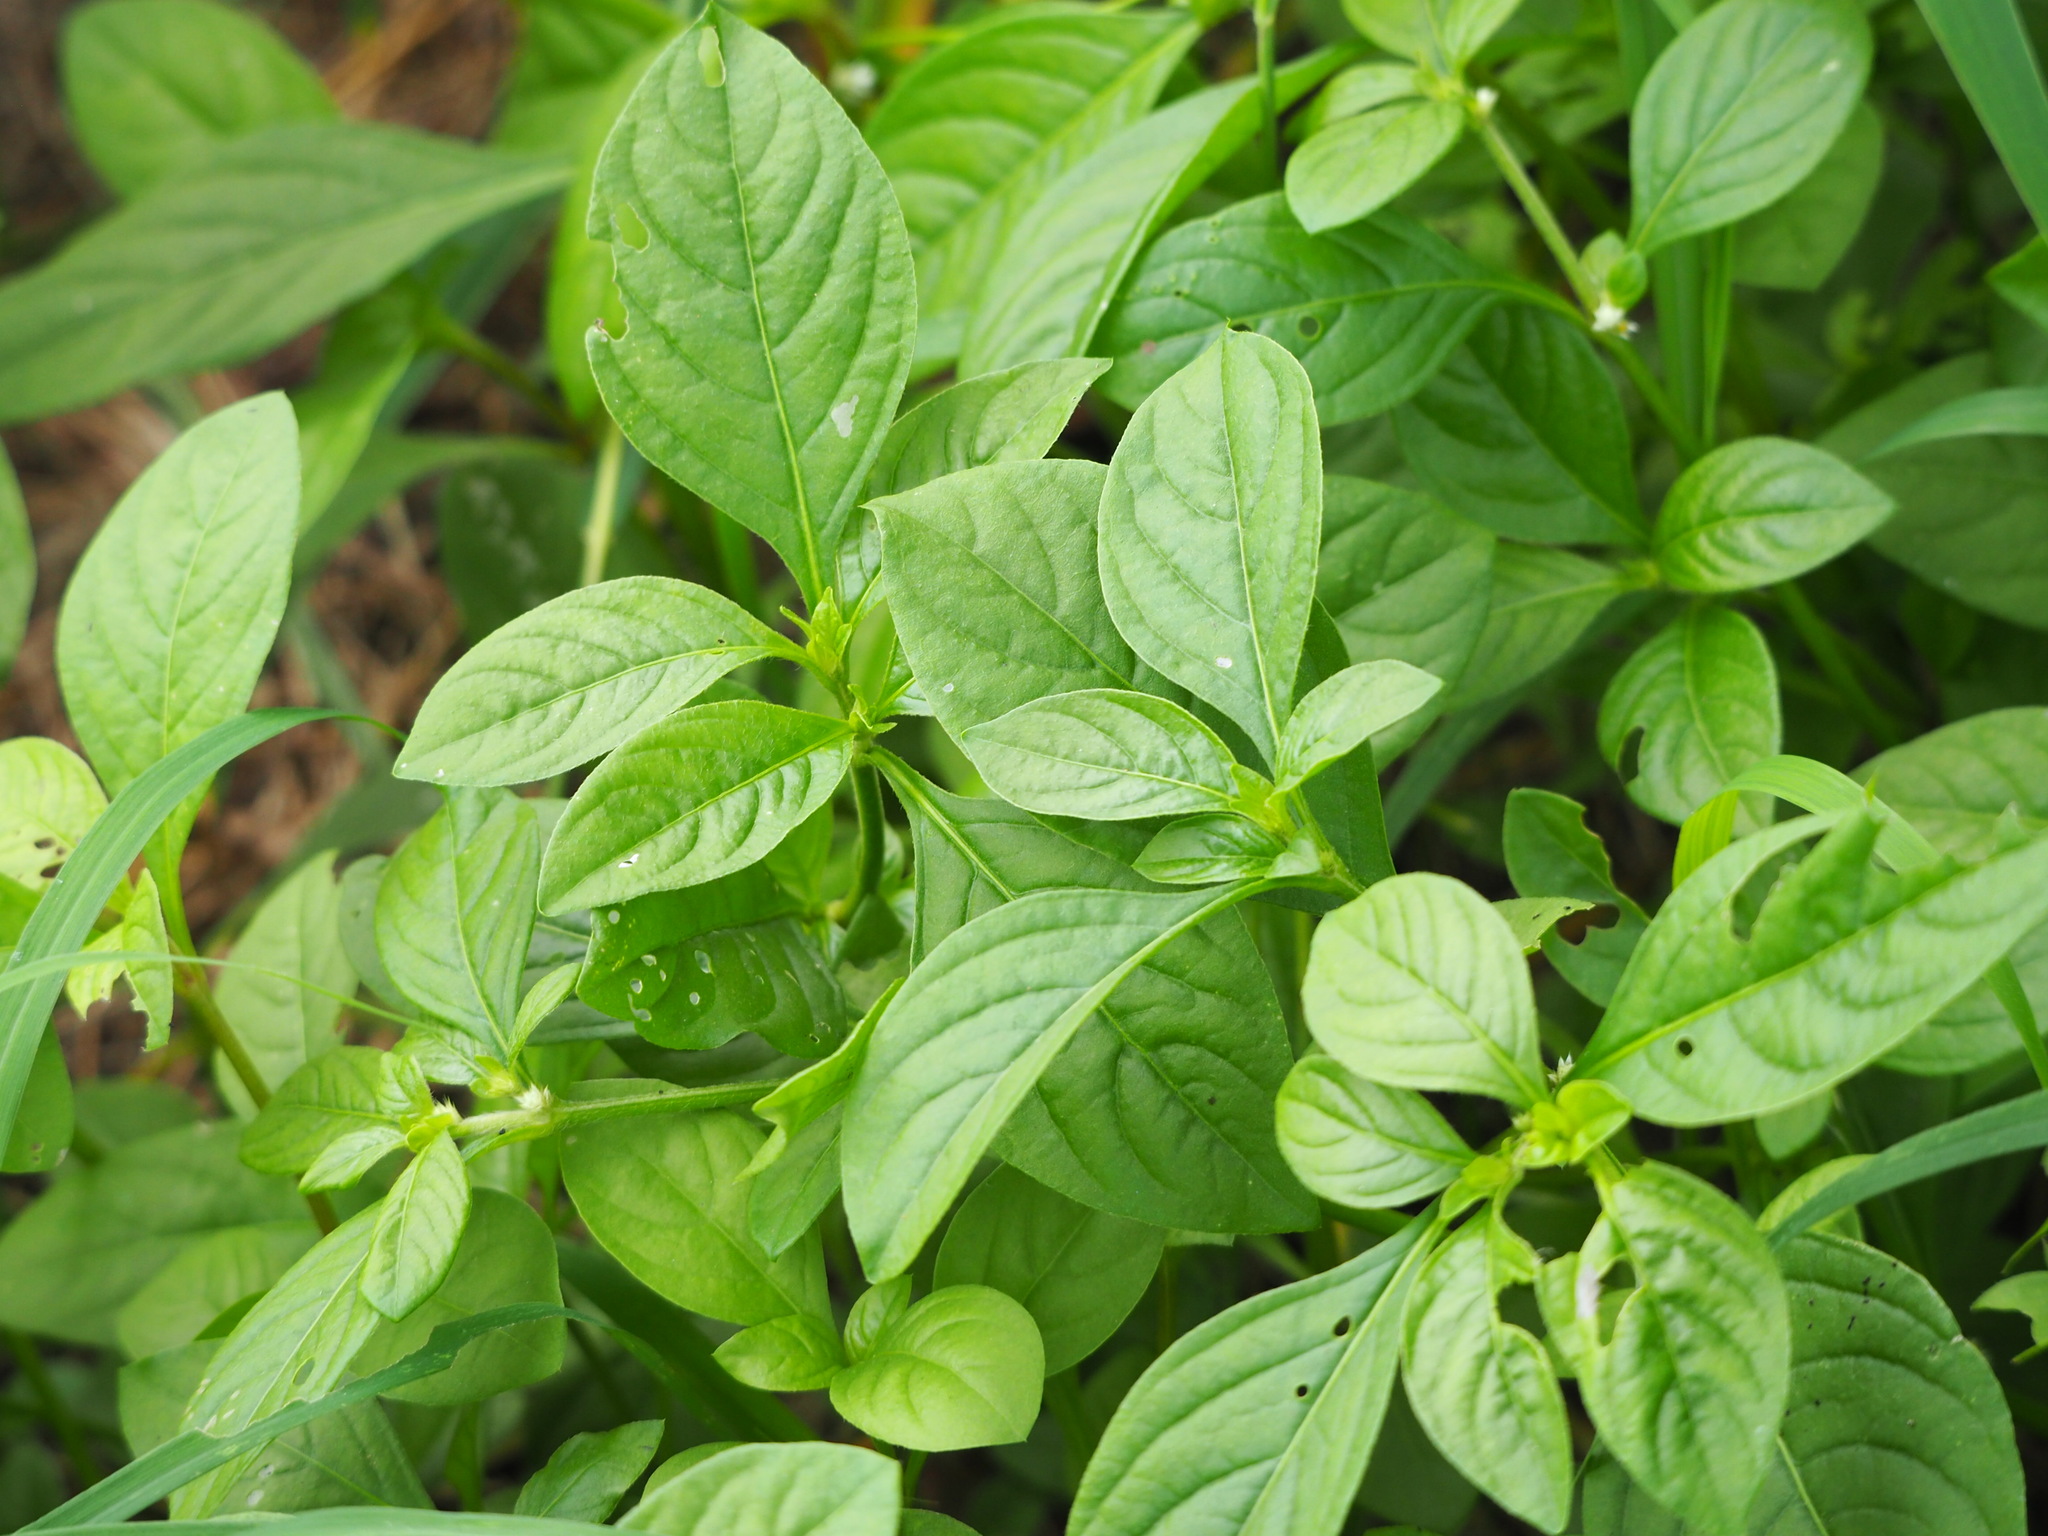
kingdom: Plantae
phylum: Tracheophyta
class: Magnoliopsida
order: Caryophyllales
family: Amaranthaceae
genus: Alternanthera
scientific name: Alternanthera bettzickiana
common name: Calico-plant
